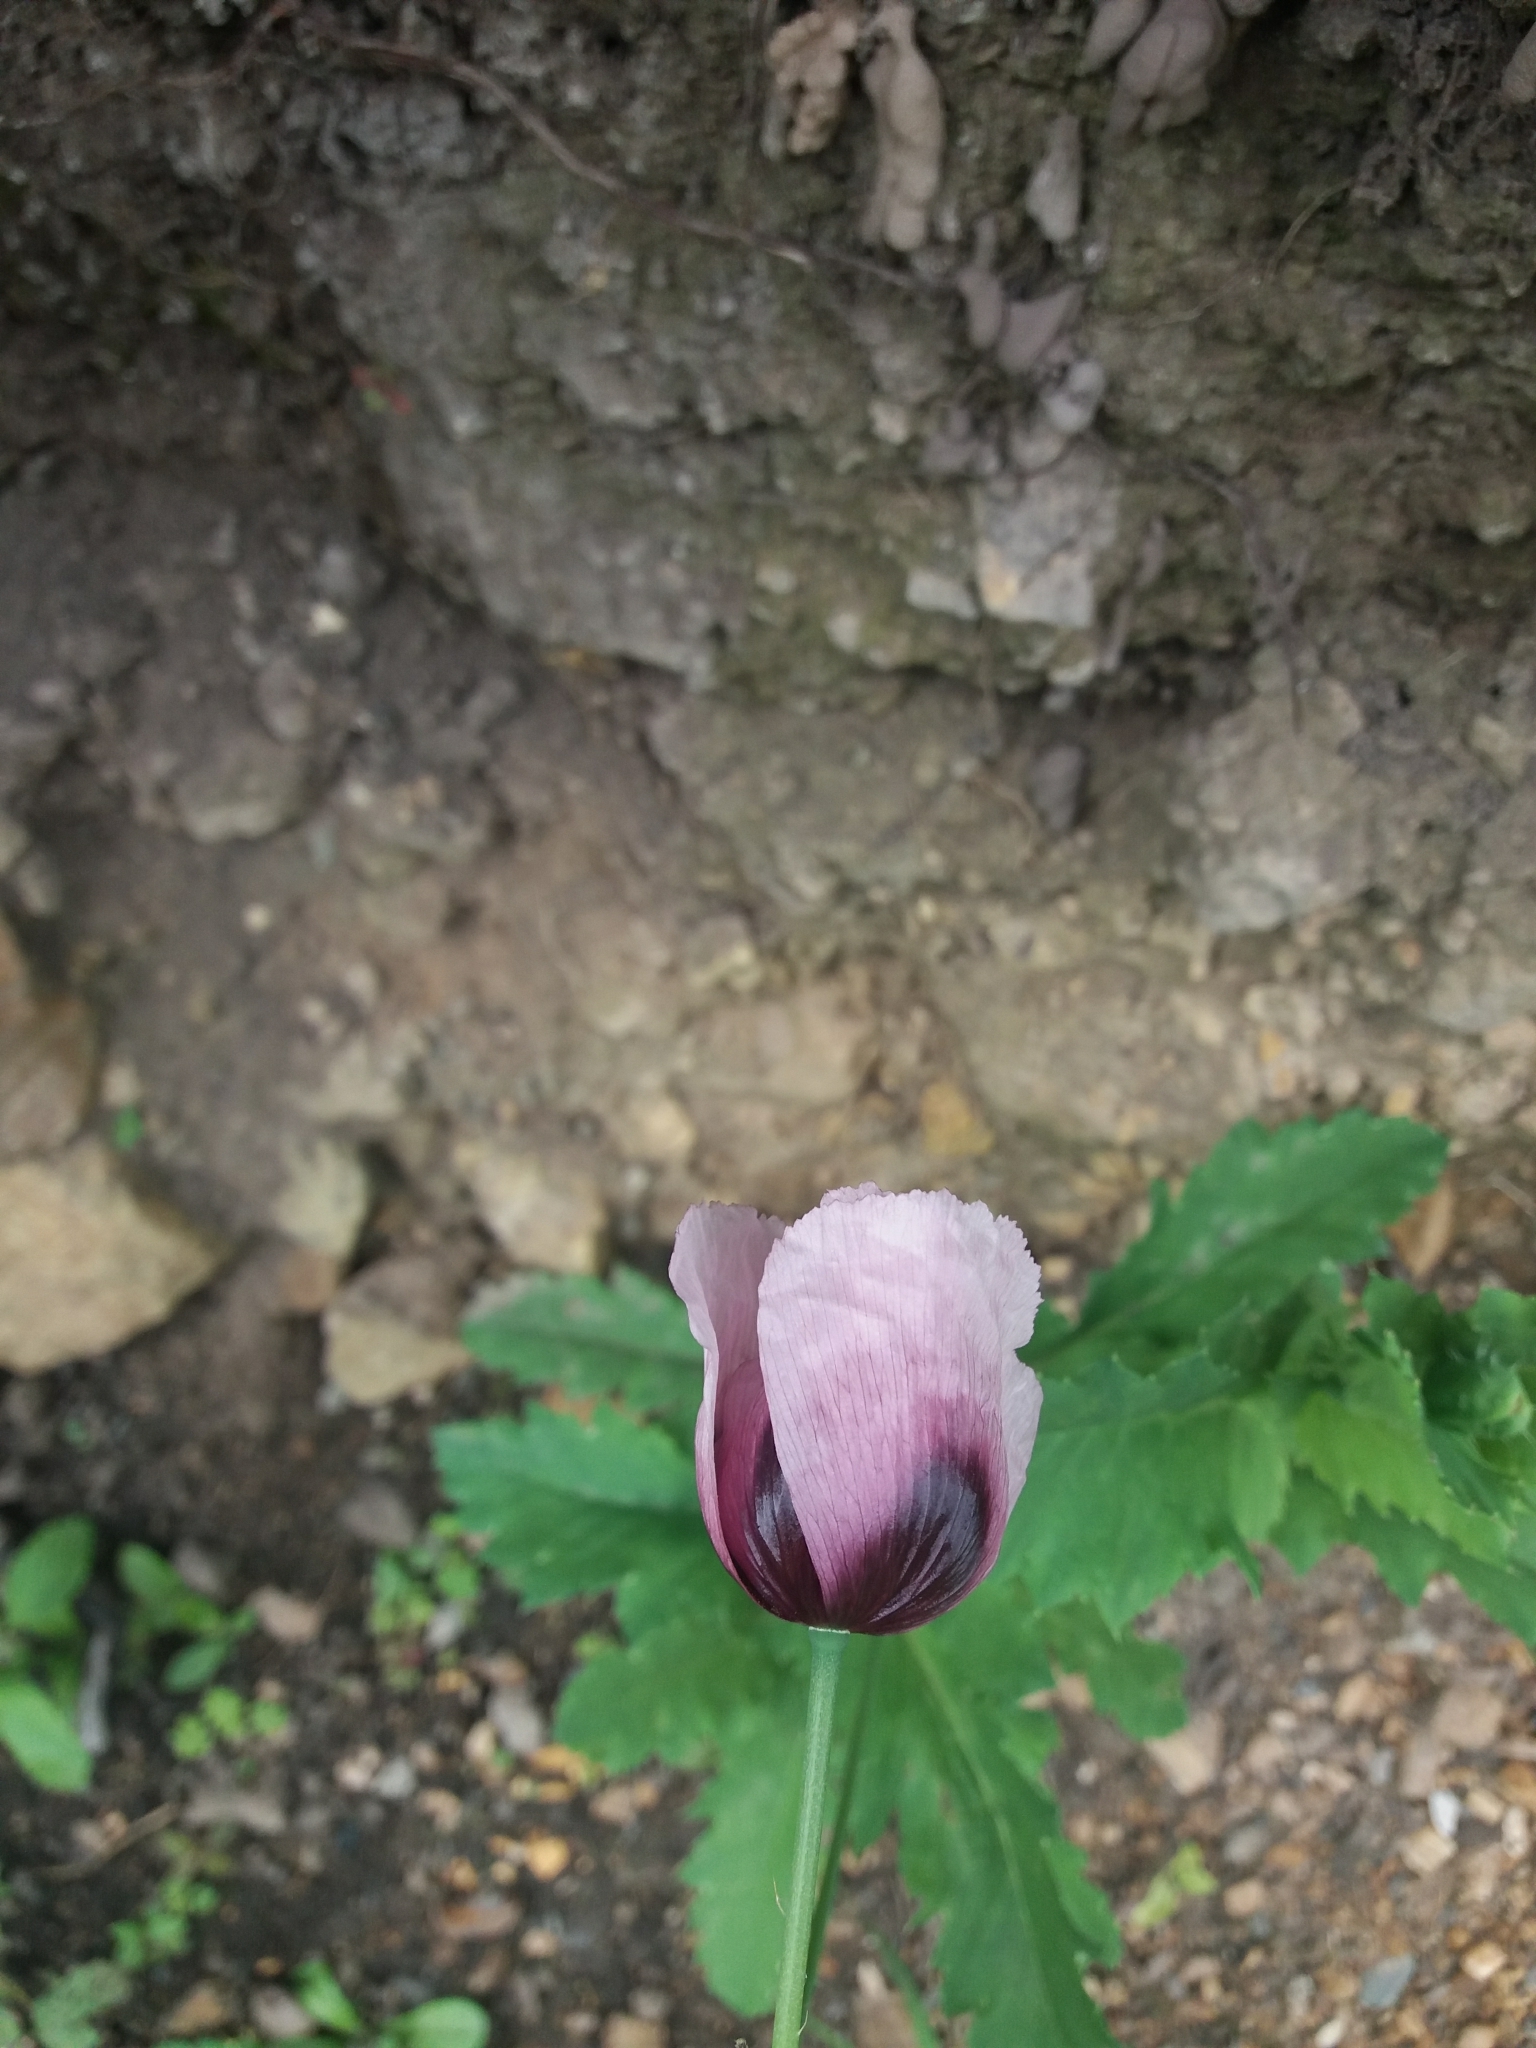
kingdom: Plantae
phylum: Tracheophyta
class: Magnoliopsida
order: Ranunculales
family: Papaveraceae
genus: Papaver
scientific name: Papaver somniferum
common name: Opium poppy
